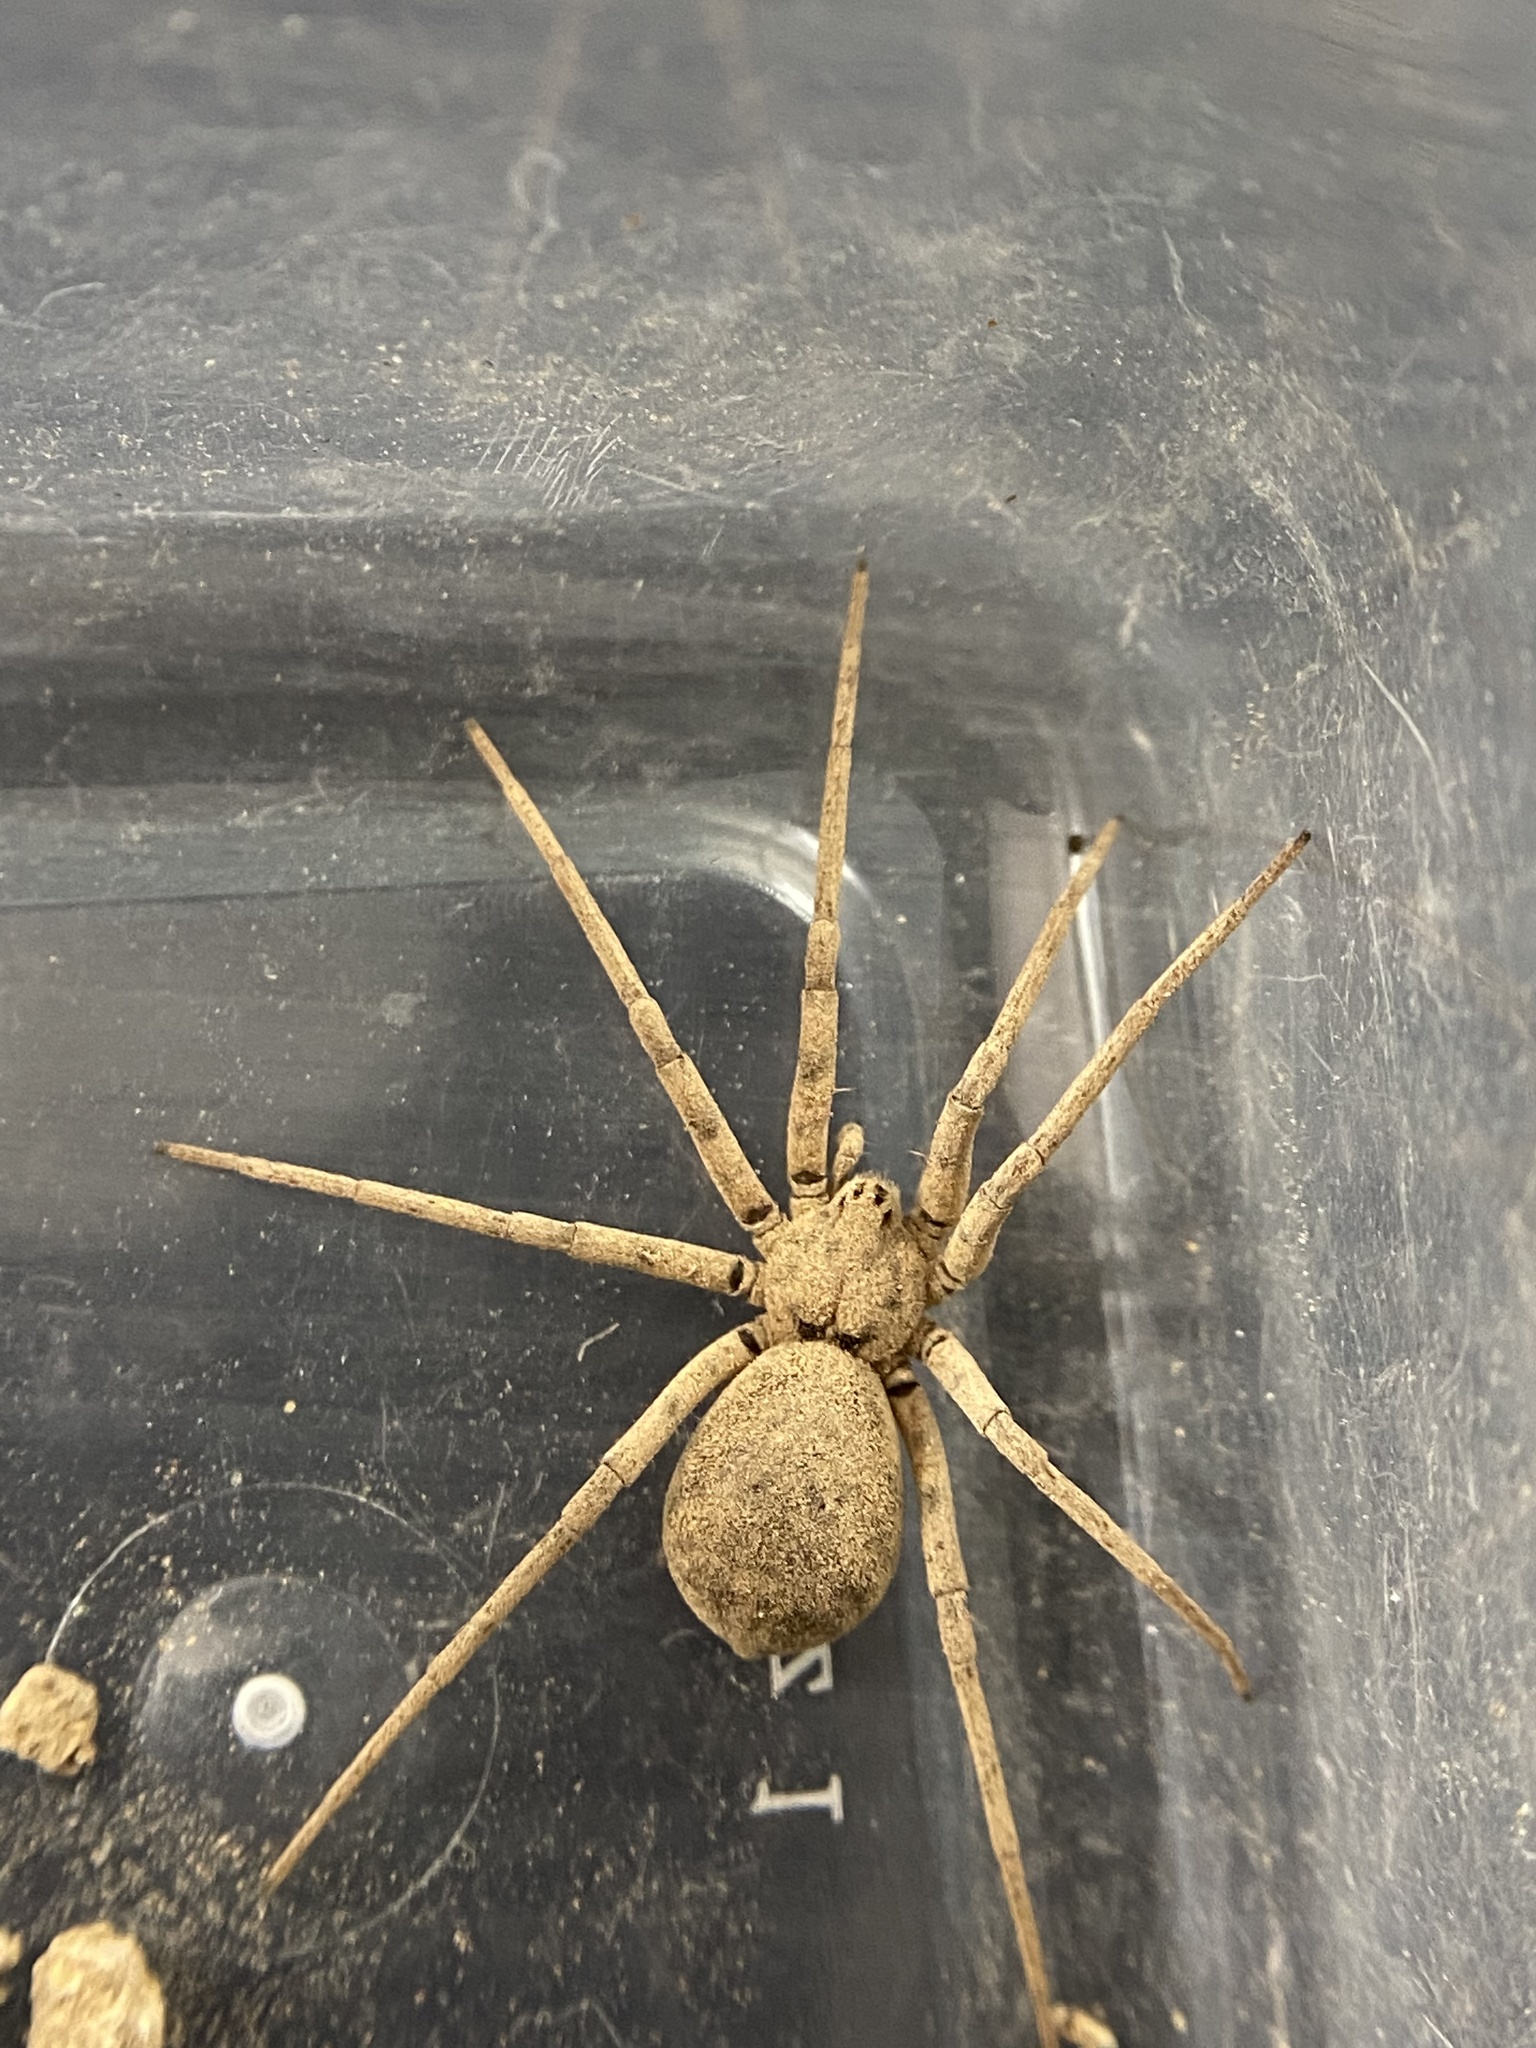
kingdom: Animalia
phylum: Arthropoda
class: Arachnida
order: Araneae
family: Homalonychidae
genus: Homalonychus
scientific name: Homalonychus selenopoides
